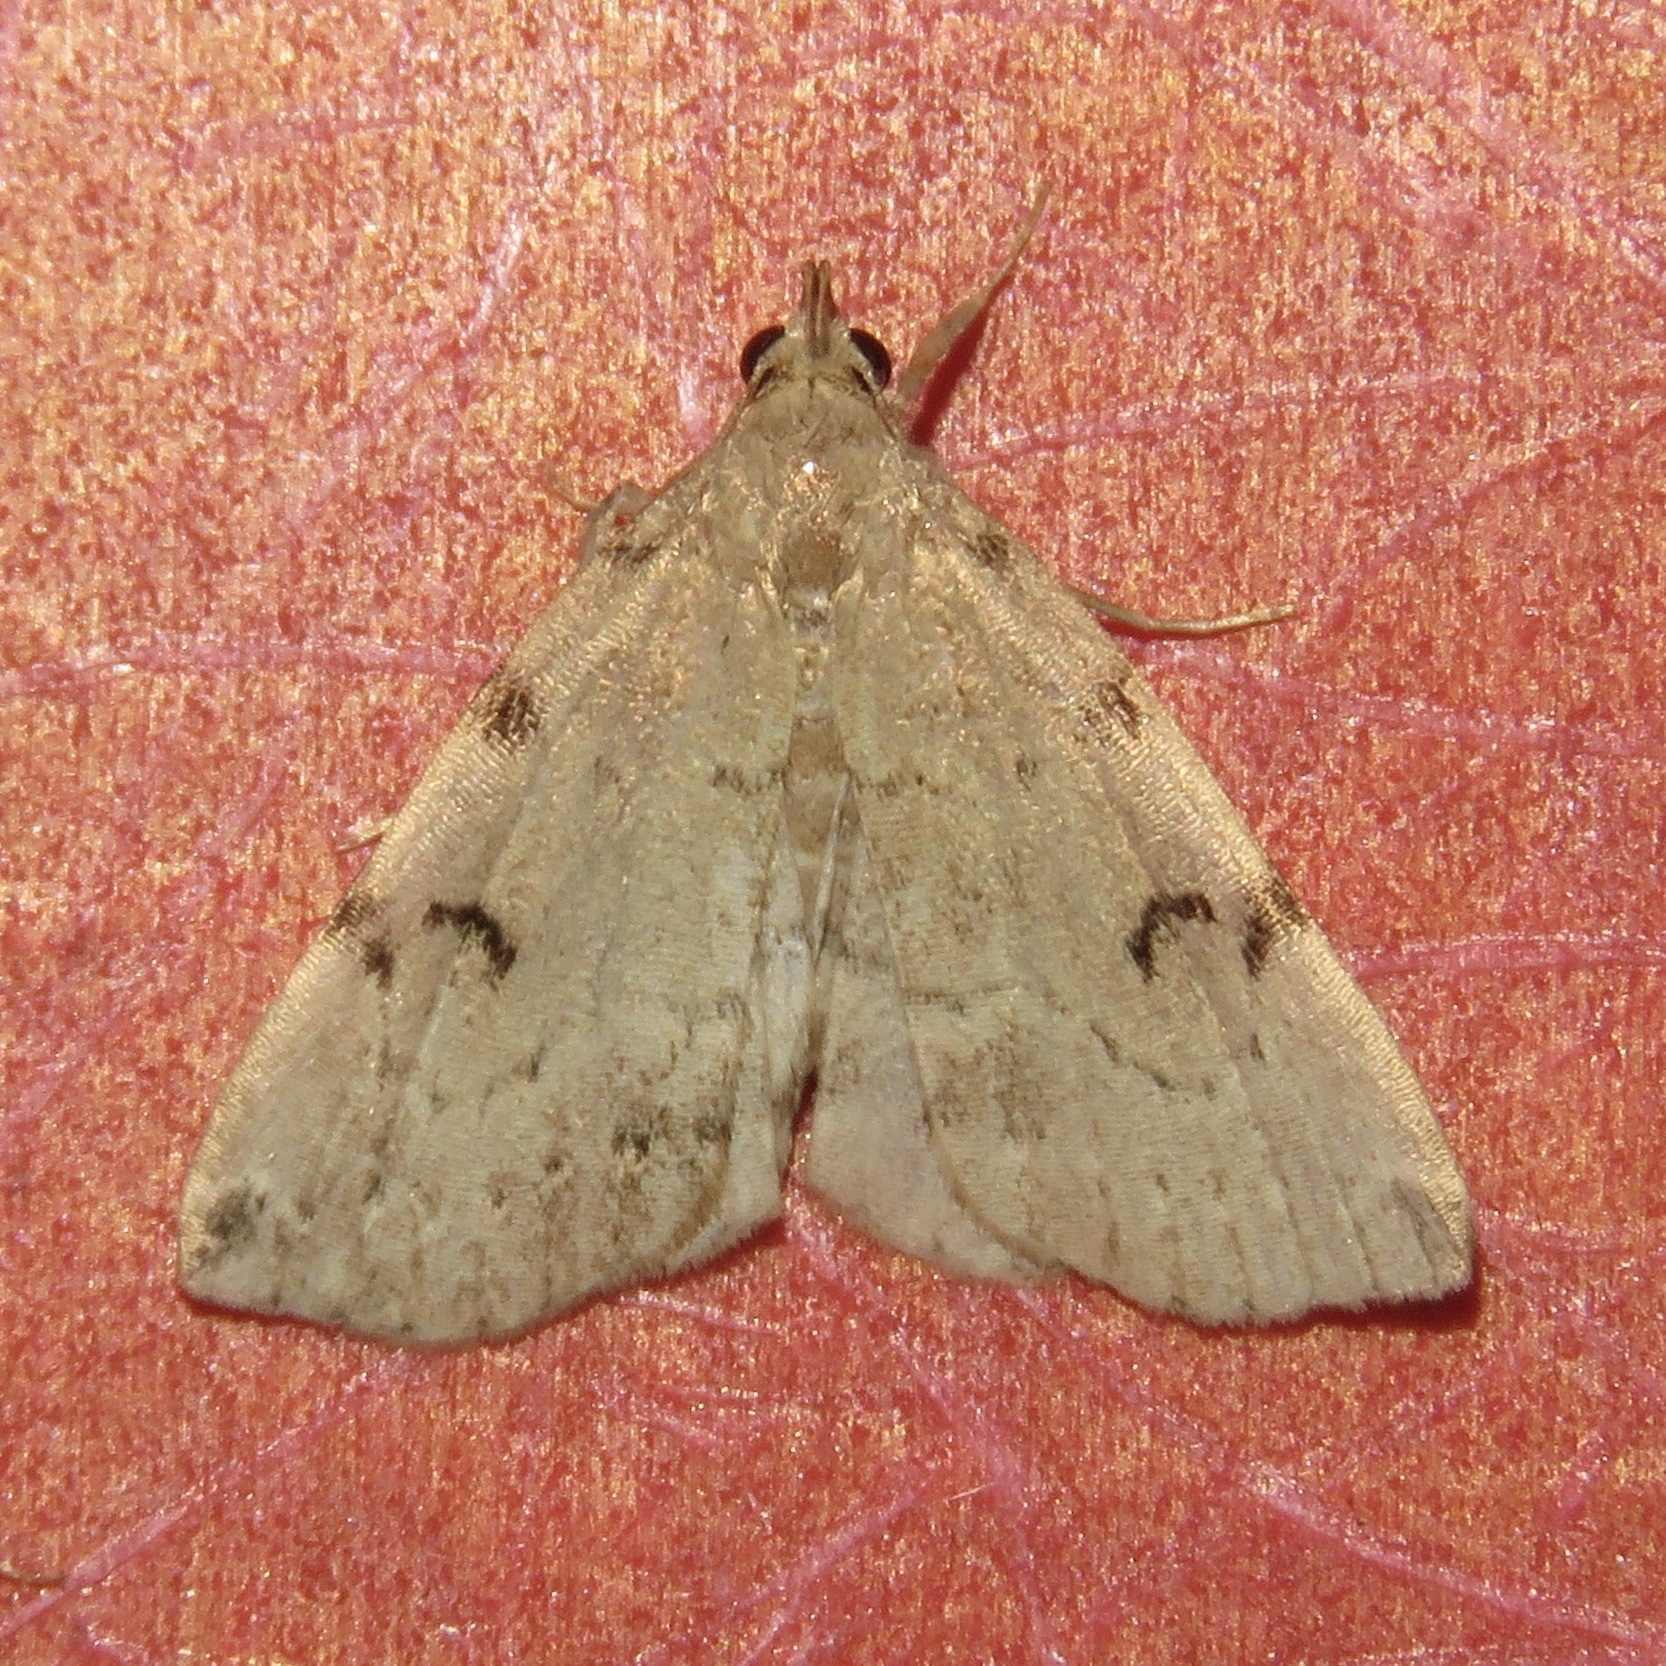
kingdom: Animalia
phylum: Arthropoda
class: Insecta
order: Lepidoptera
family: Erebidae
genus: Zanclognatha
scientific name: Zanclognatha lituralis
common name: Lettered fan-foot
